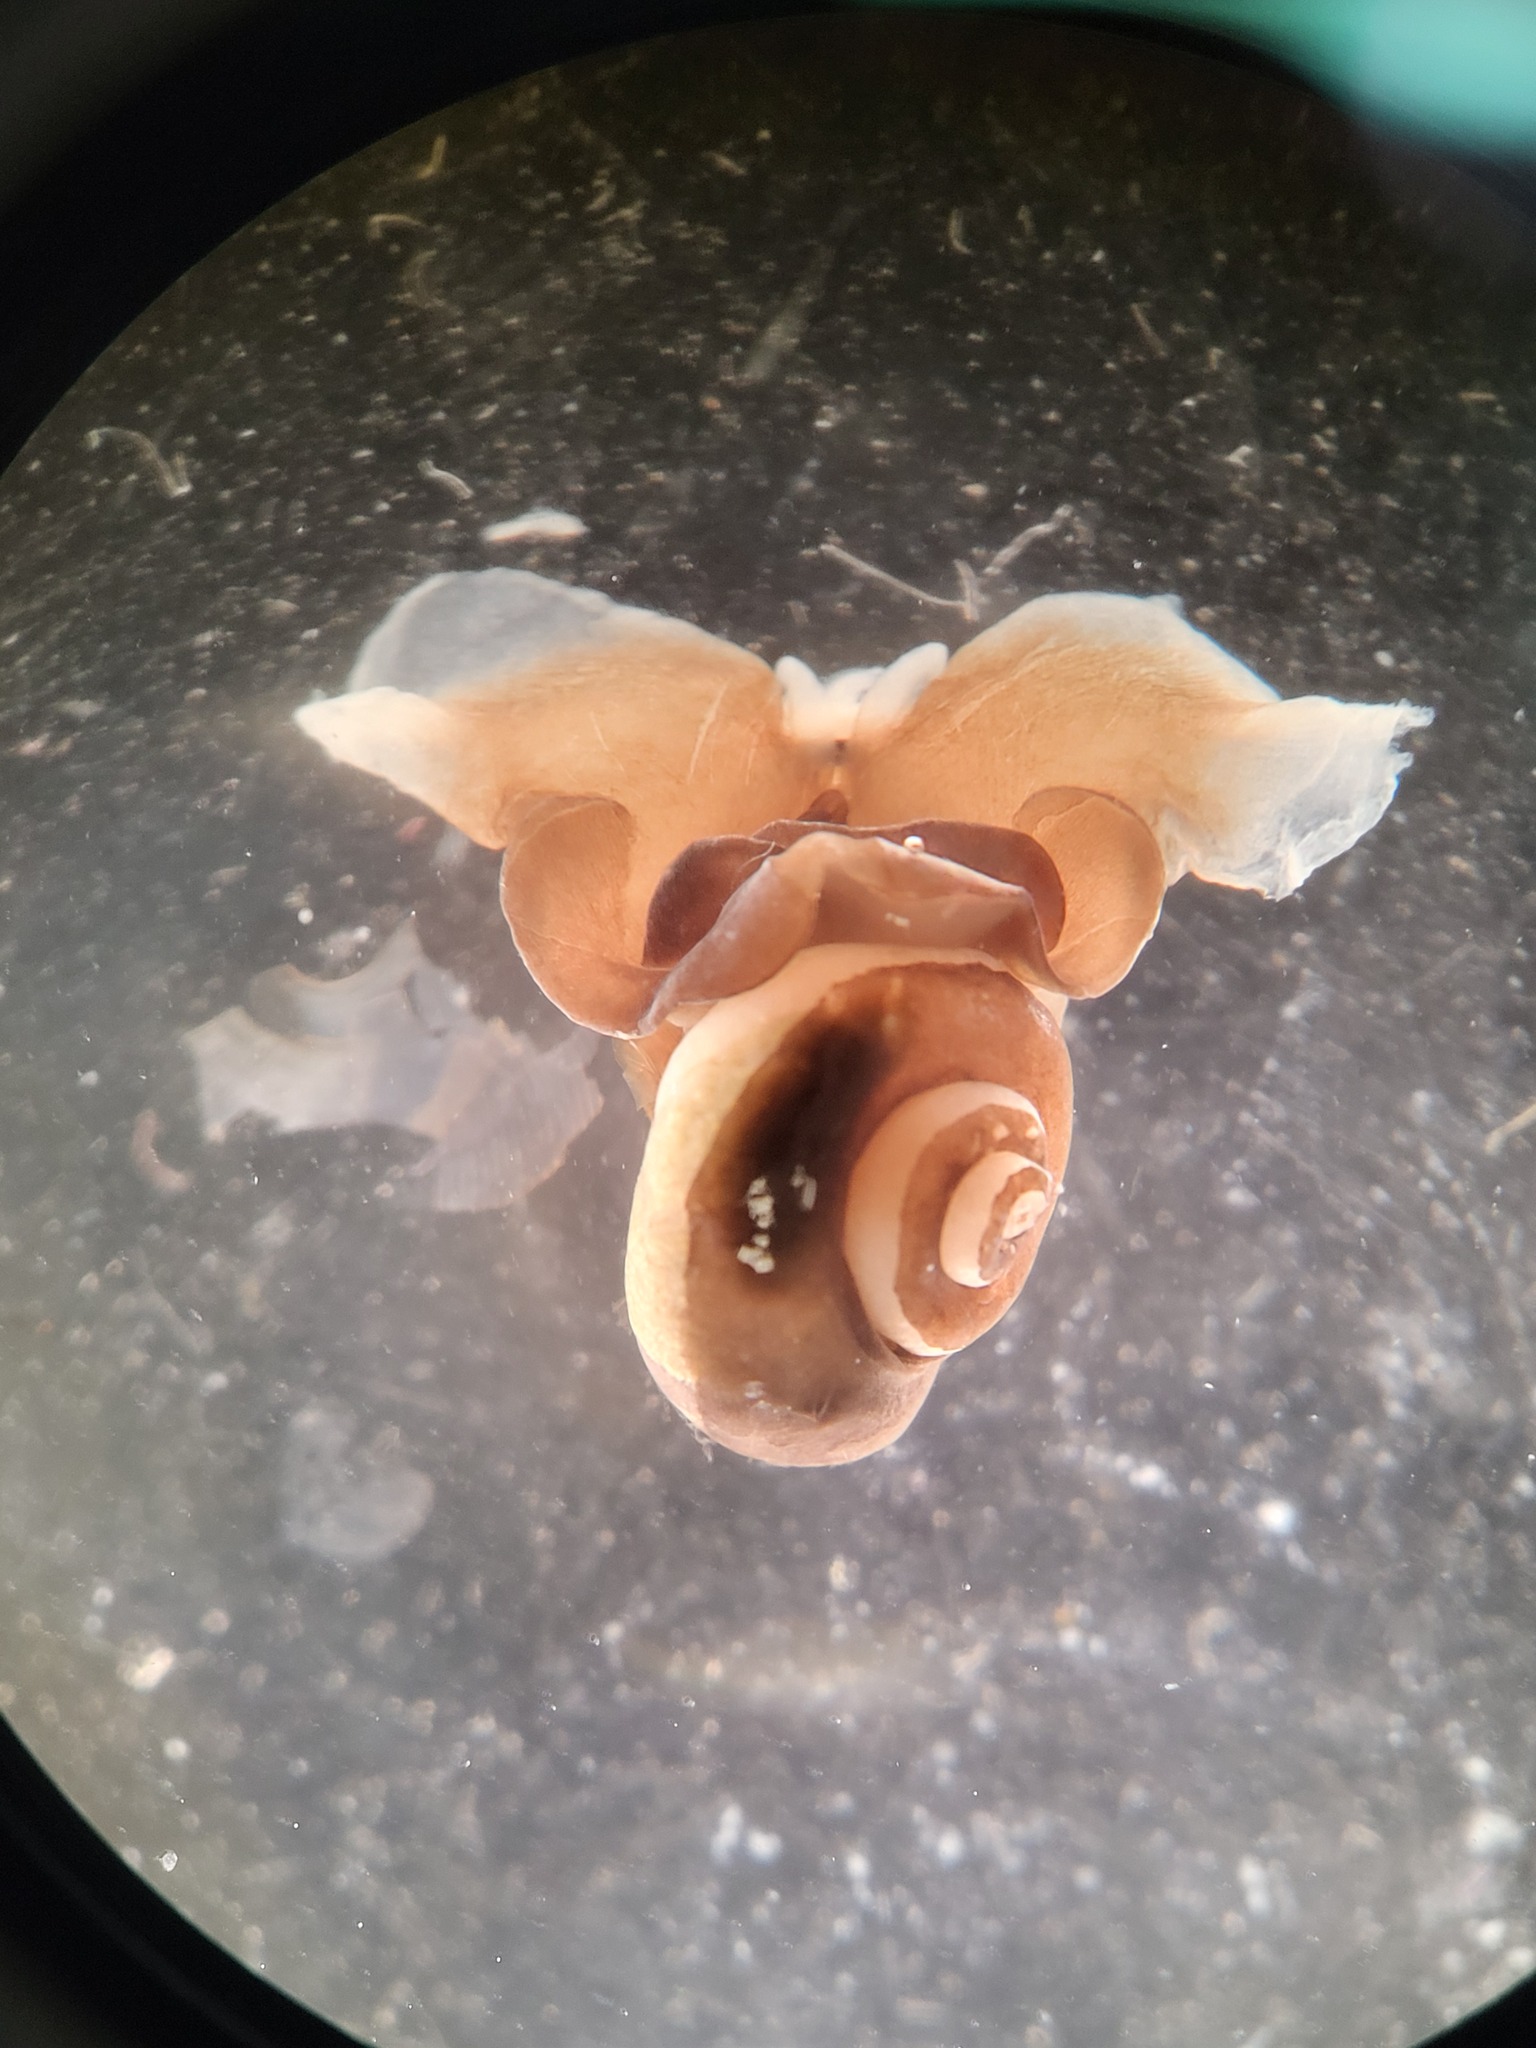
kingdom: Animalia
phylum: Mollusca
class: Gastropoda
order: Pteropoda
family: Limacinidae
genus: Limacina
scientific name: Limacina helicina
